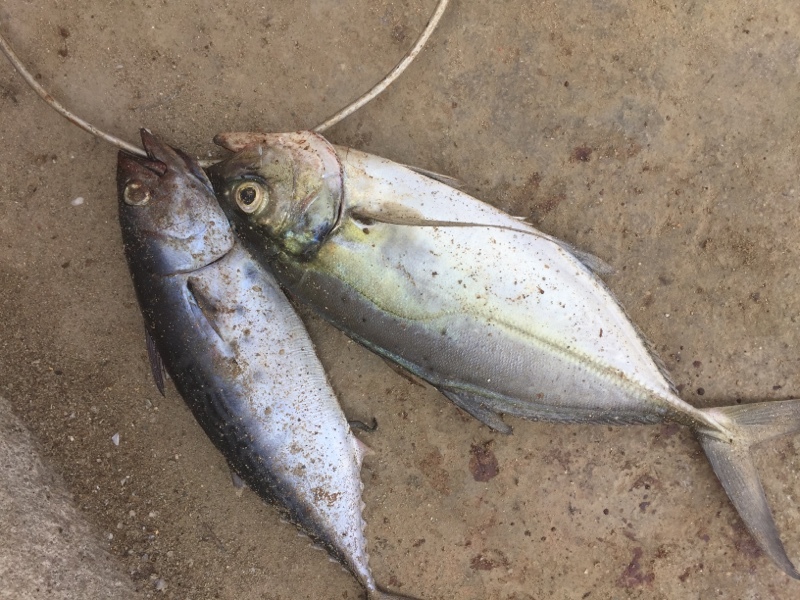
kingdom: Animalia
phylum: Chordata
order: Perciformes
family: Carangidae
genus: Caranx
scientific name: Caranx crysos
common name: Blue runner
